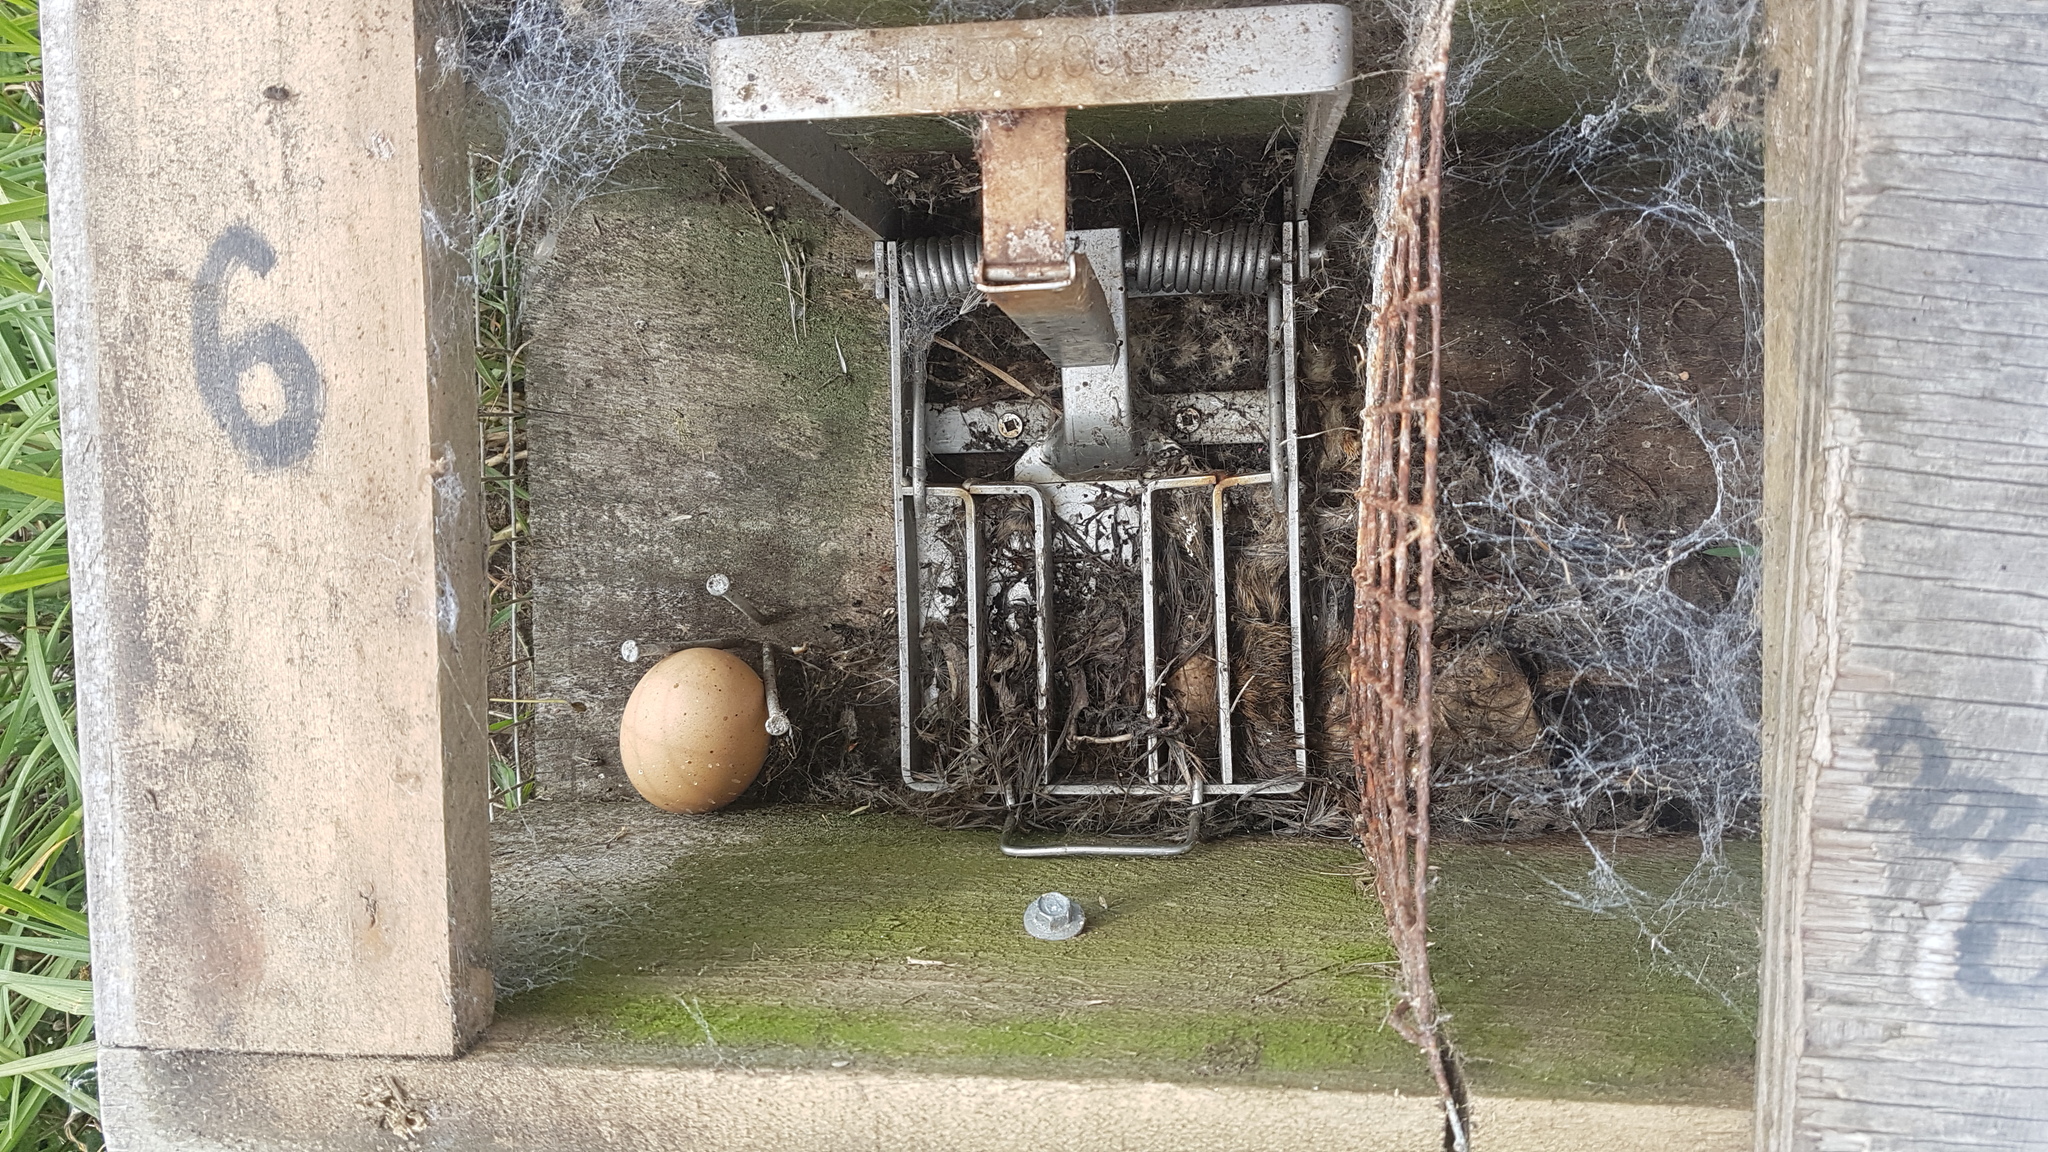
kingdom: Animalia
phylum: Chordata
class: Mammalia
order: Rodentia
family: Muridae
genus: Rattus
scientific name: Rattus norvegicus
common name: Brown rat
